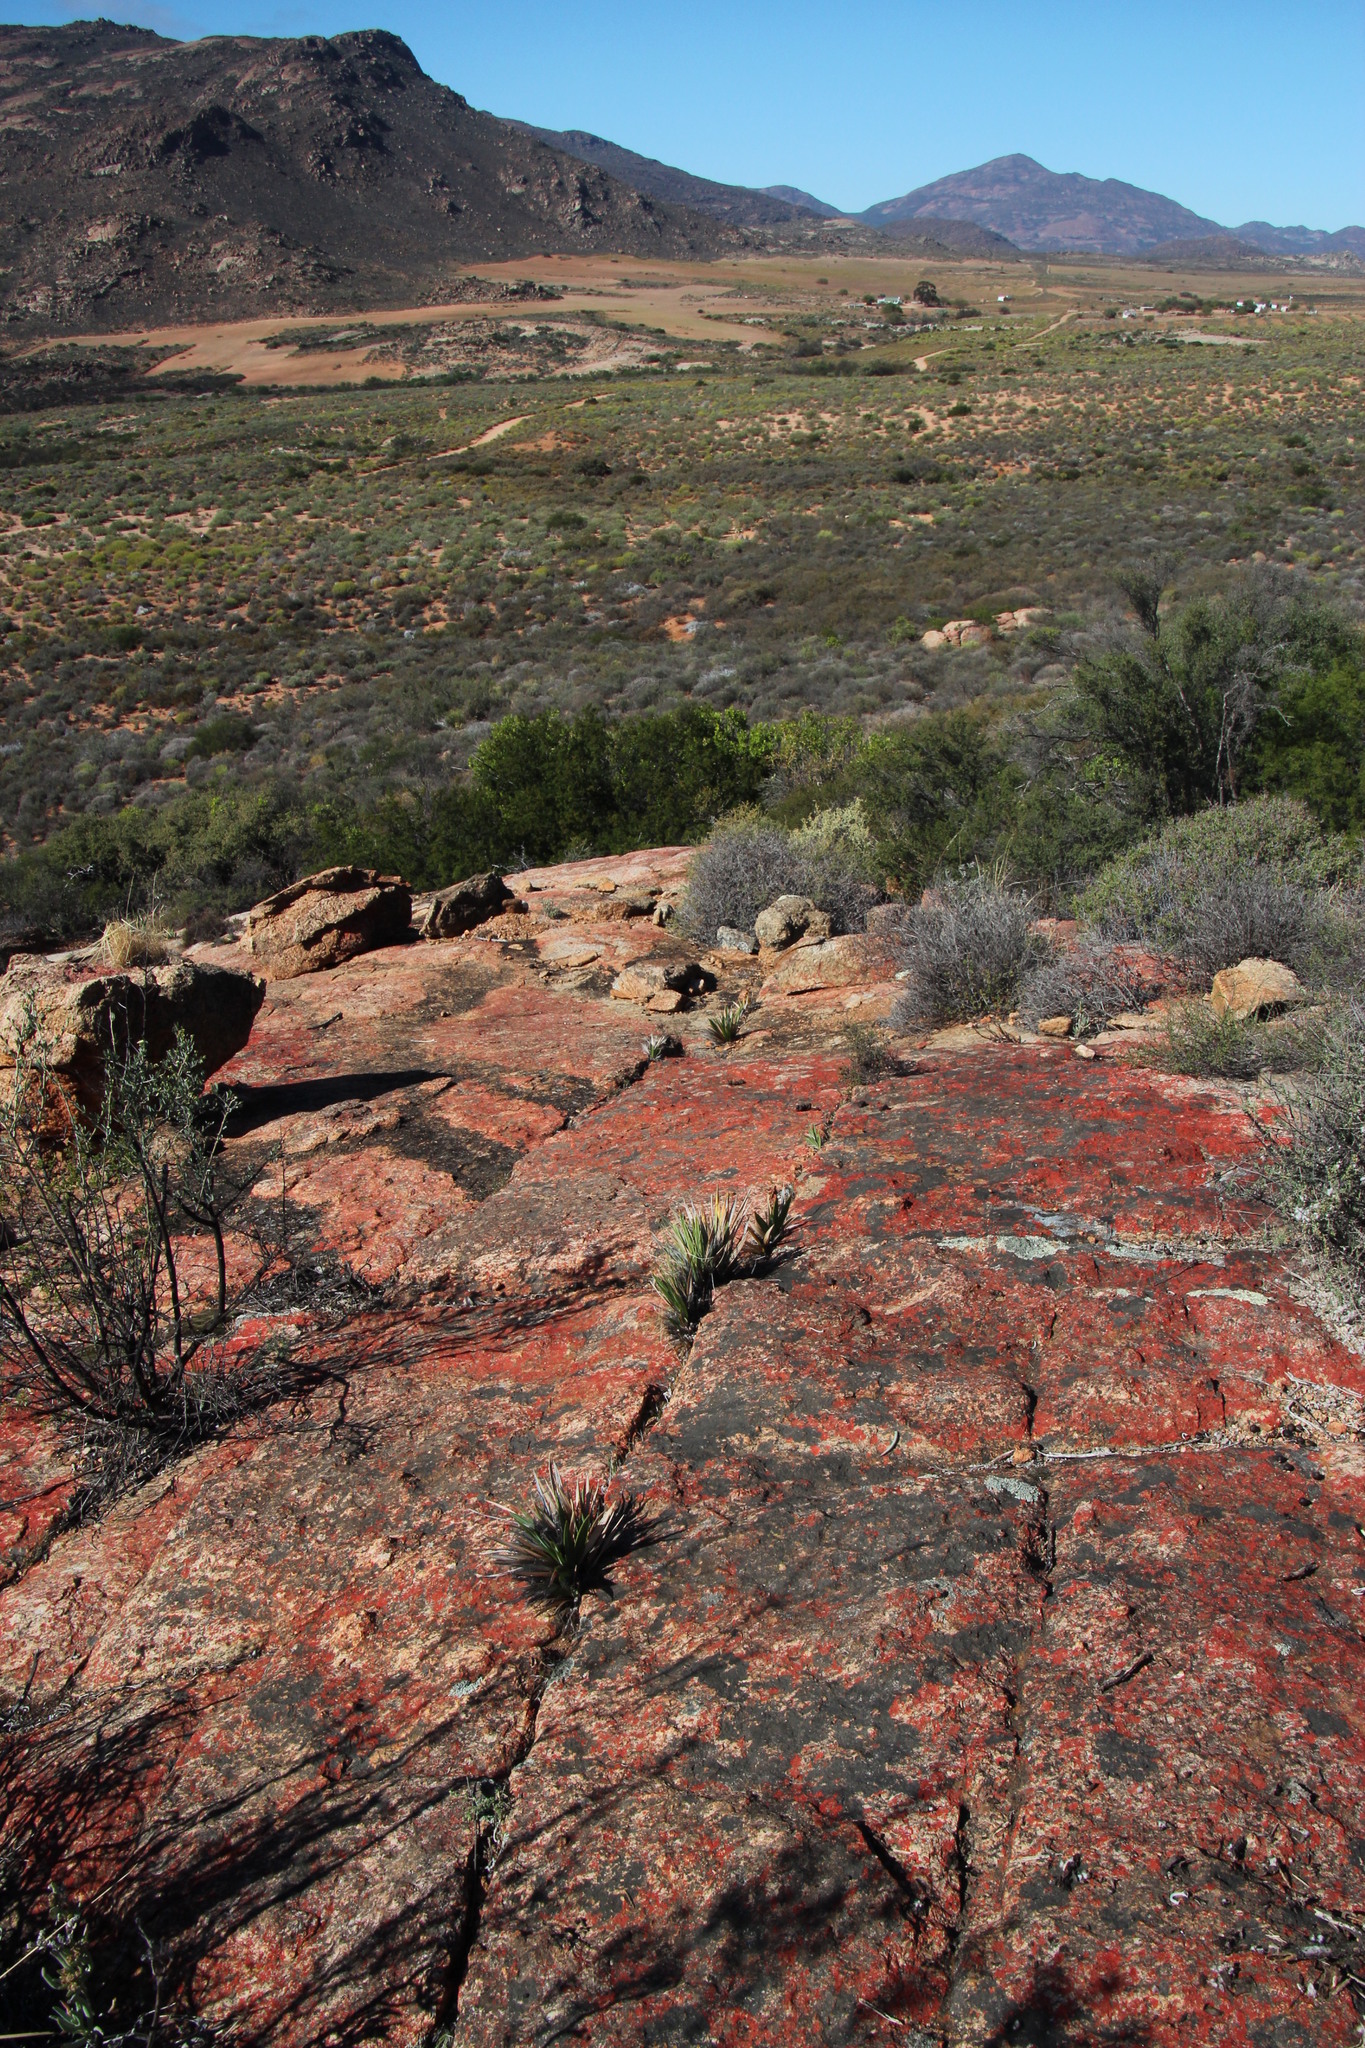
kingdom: Plantae
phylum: Tracheophyta
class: Liliopsida
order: Asparagales
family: Iridaceae
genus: Babiana
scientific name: Babiana dregei
